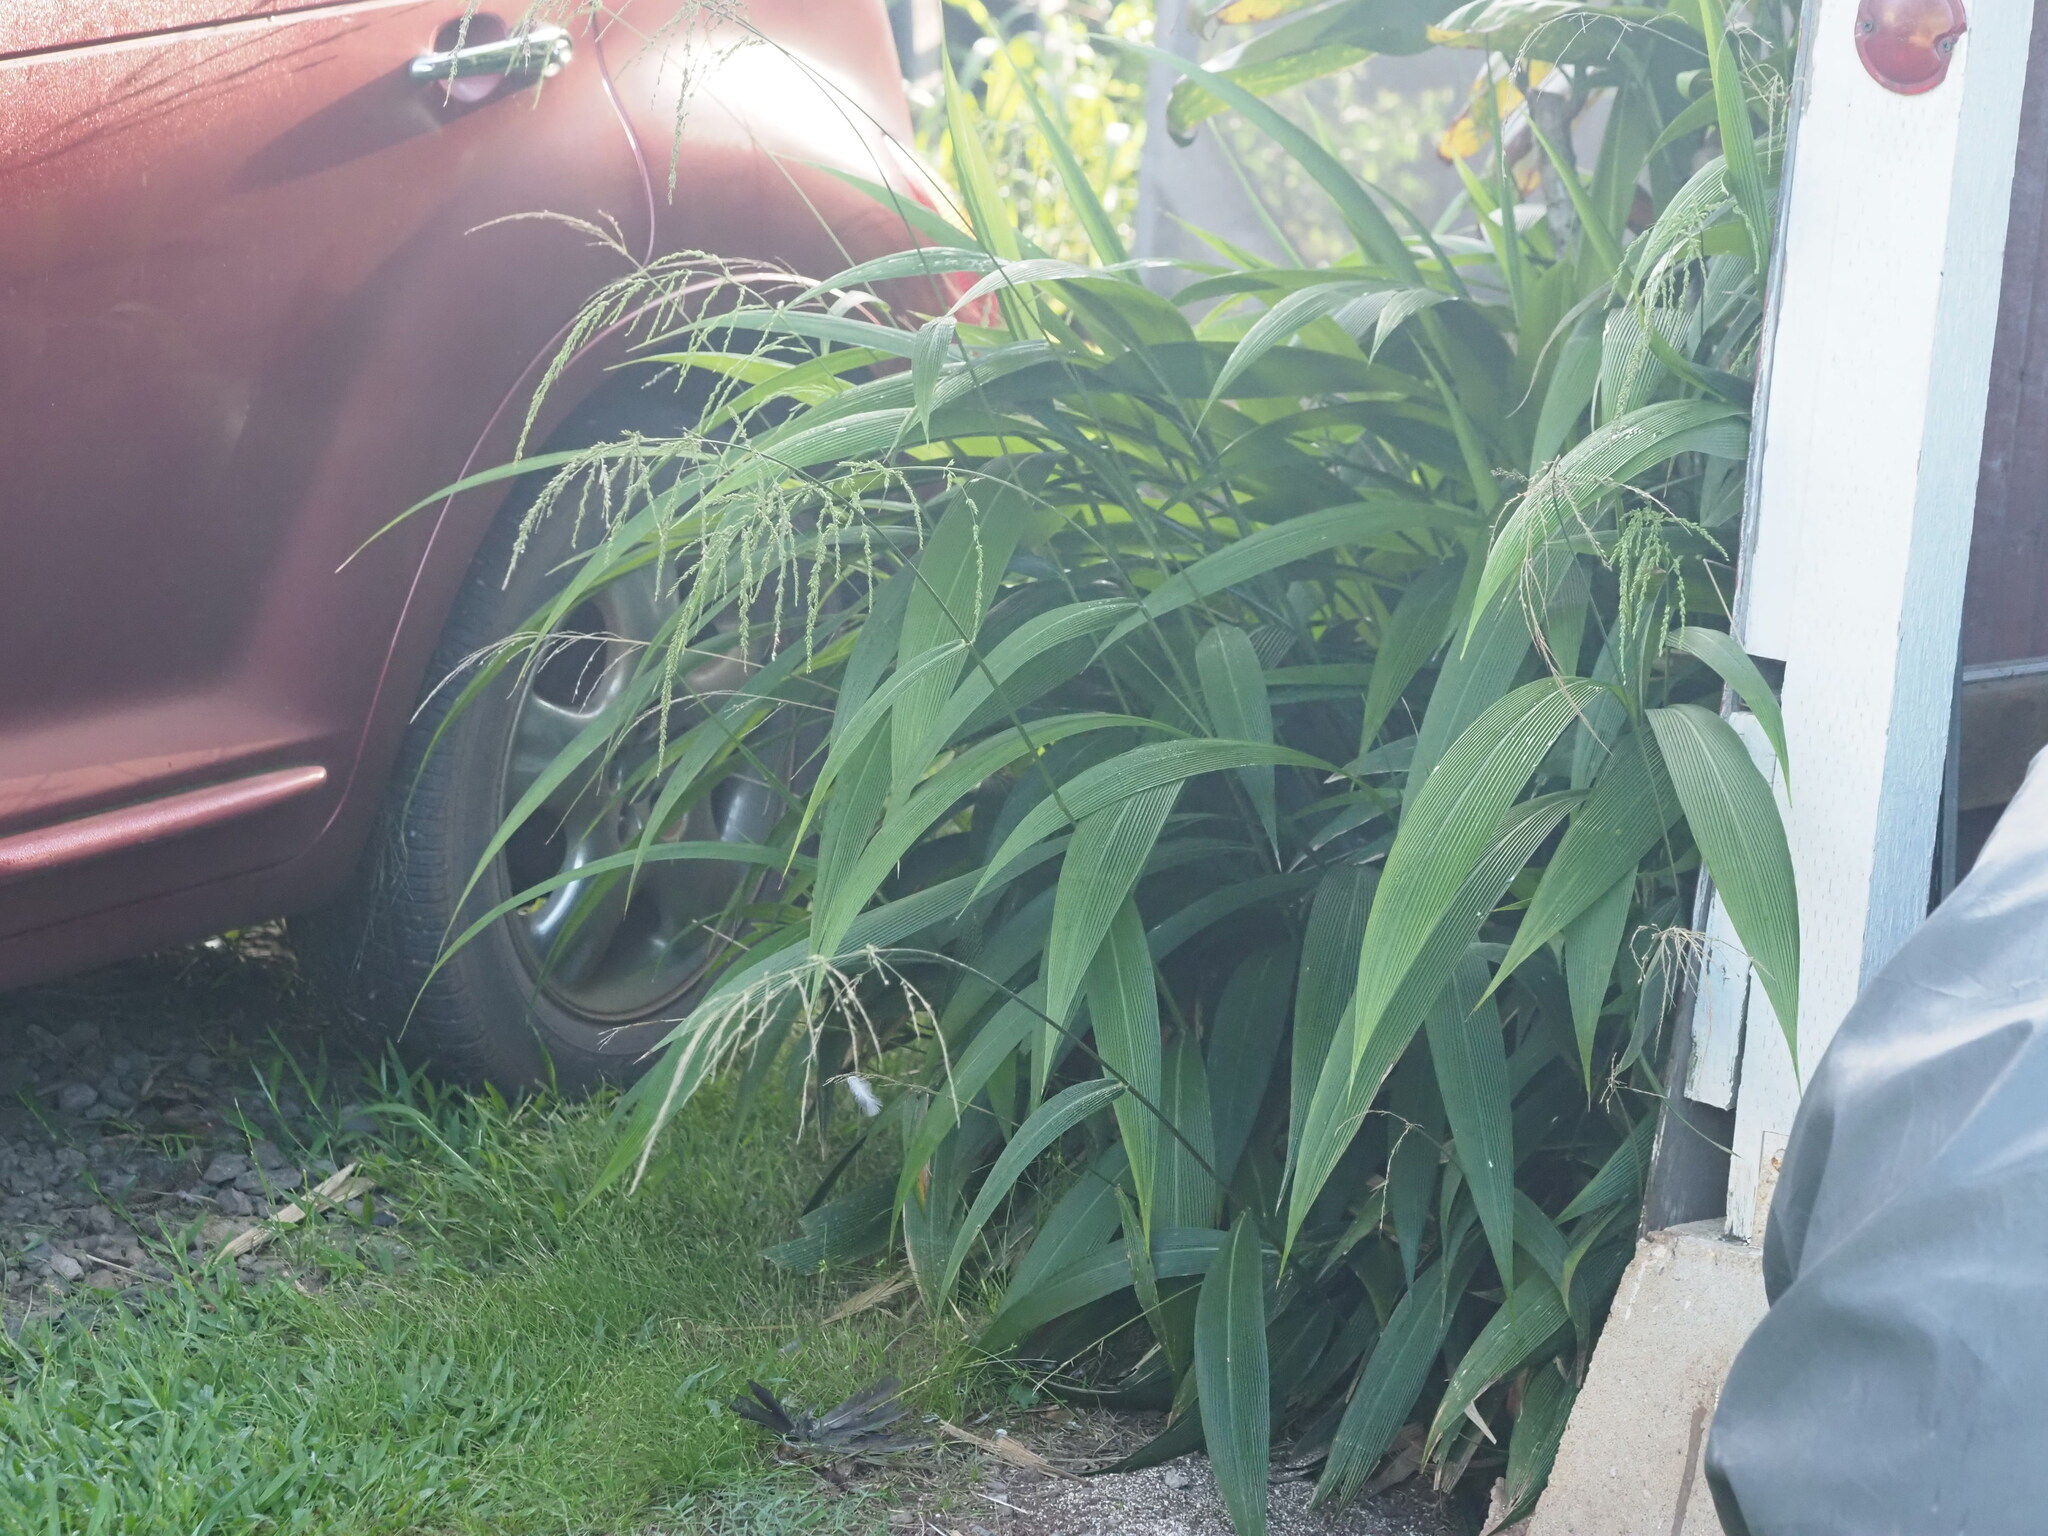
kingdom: Plantae
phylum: Tracheophyta
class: Liliopsida
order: Poales
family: Poaceae
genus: Setaria
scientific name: Setaria palmifolia
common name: Broadleaved bristlegrass
